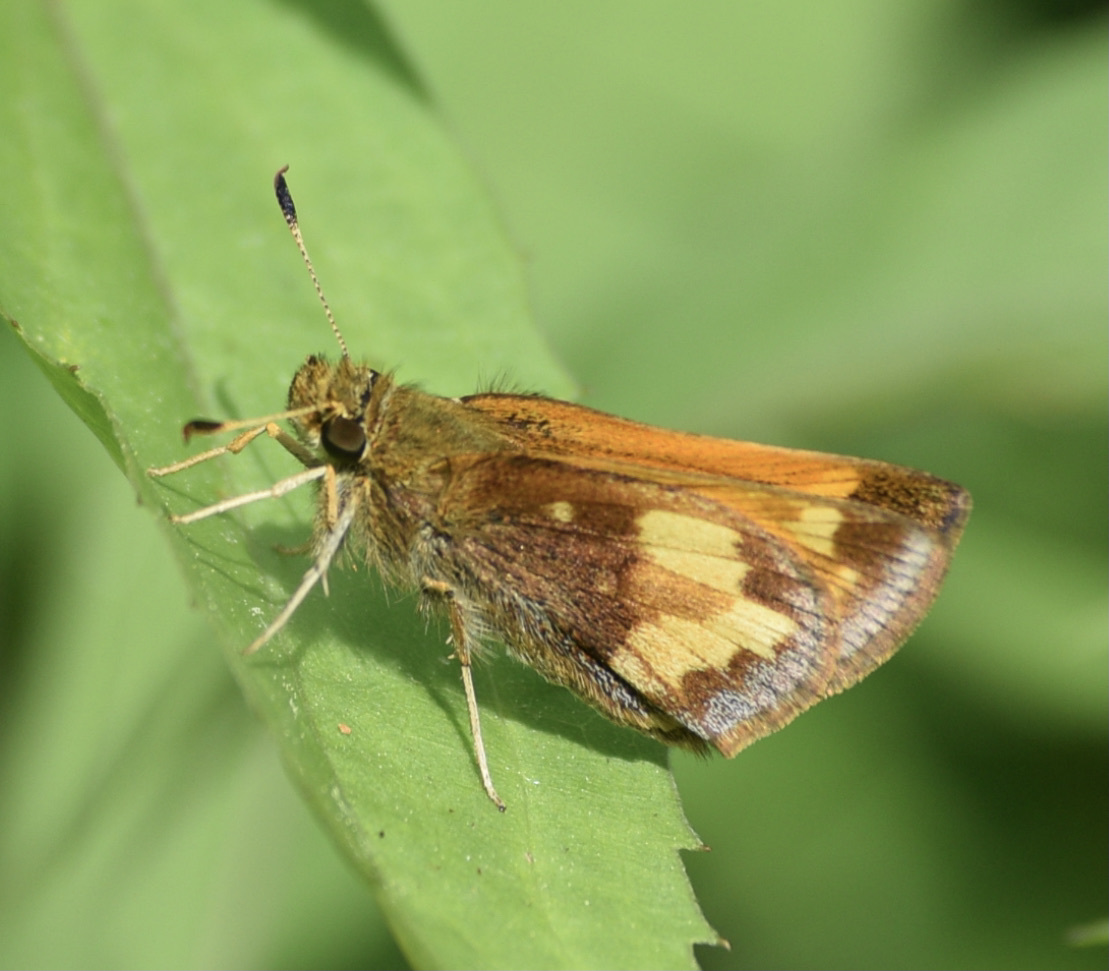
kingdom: Animalia
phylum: Arthropoda
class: Insecta
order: Lepidoptera
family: Hesperiidae
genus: Lon
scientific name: Lon hobomok
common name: Hobomok skipper
